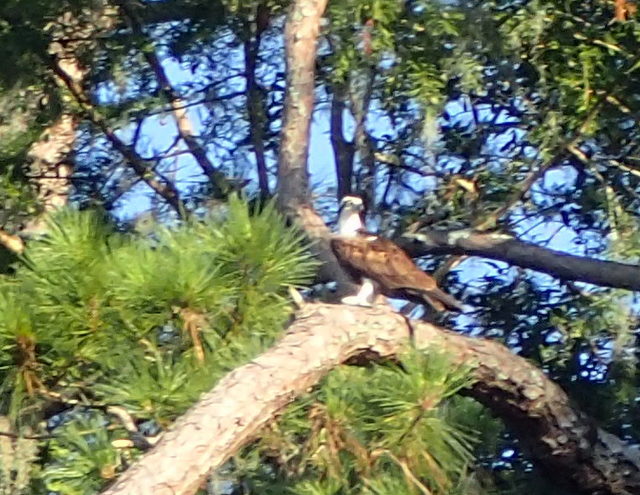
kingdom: Animalia
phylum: Chordata
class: Aves
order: Accipitriformes
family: Pandionidae
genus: Pandion
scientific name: Pandion haliaetus
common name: Osprey
